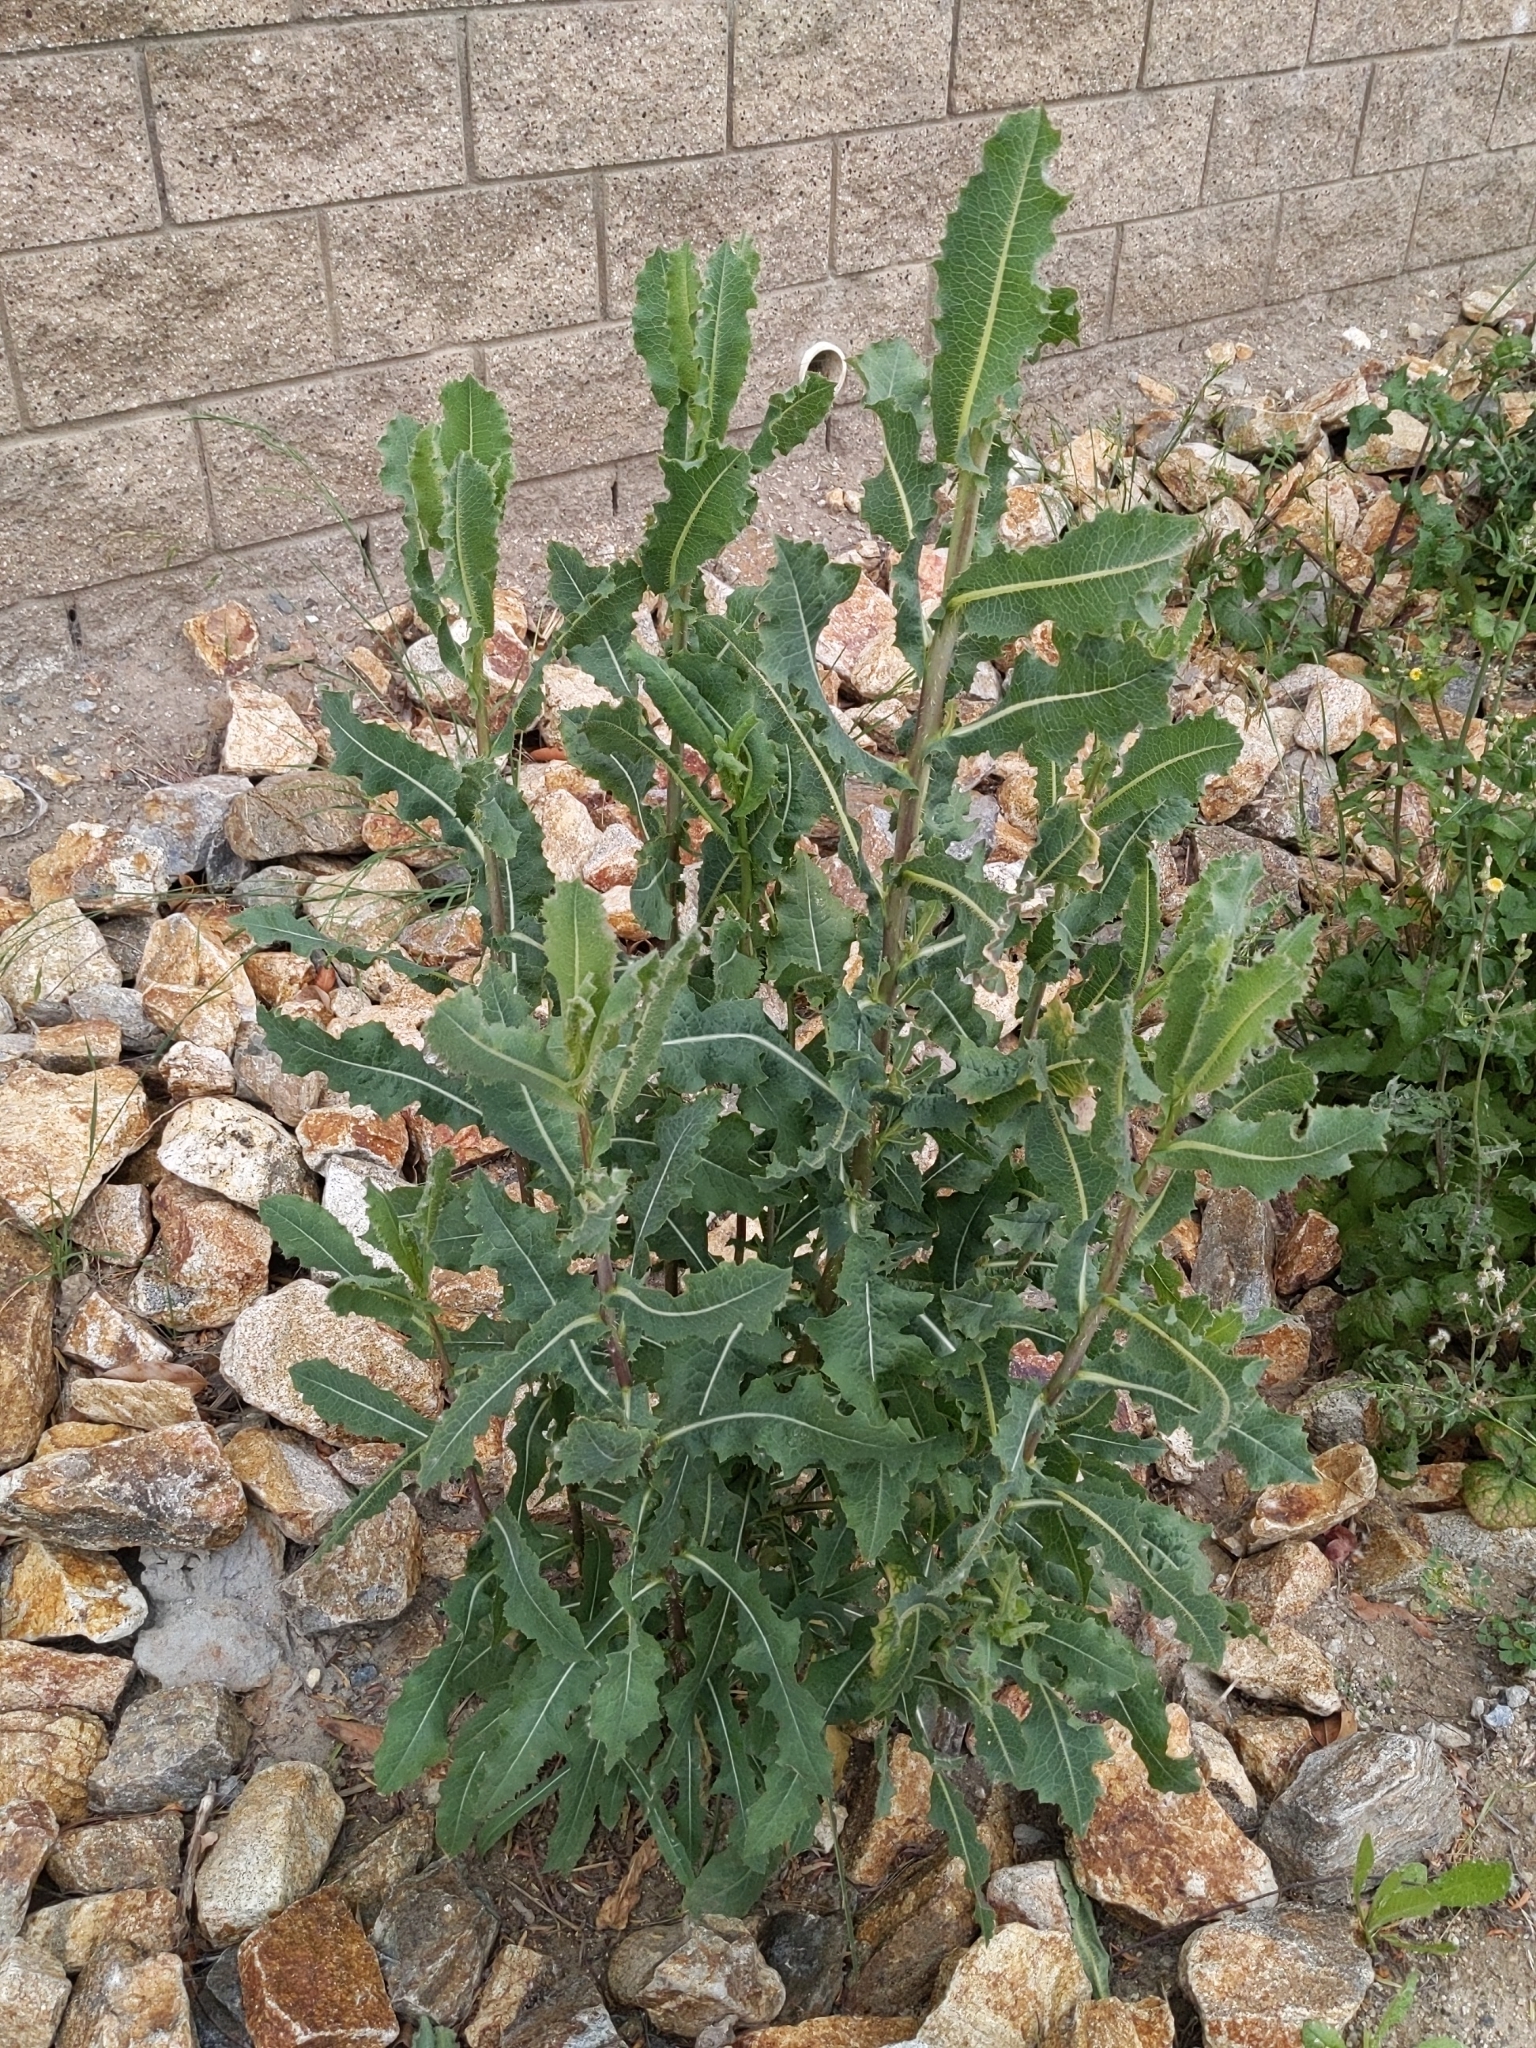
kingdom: Plantae
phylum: Tracheophyta
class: Magnoliopsida
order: Asterales
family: Asteraceae
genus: Lactuca
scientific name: Lactuca serriola
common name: Prickly lettuce
